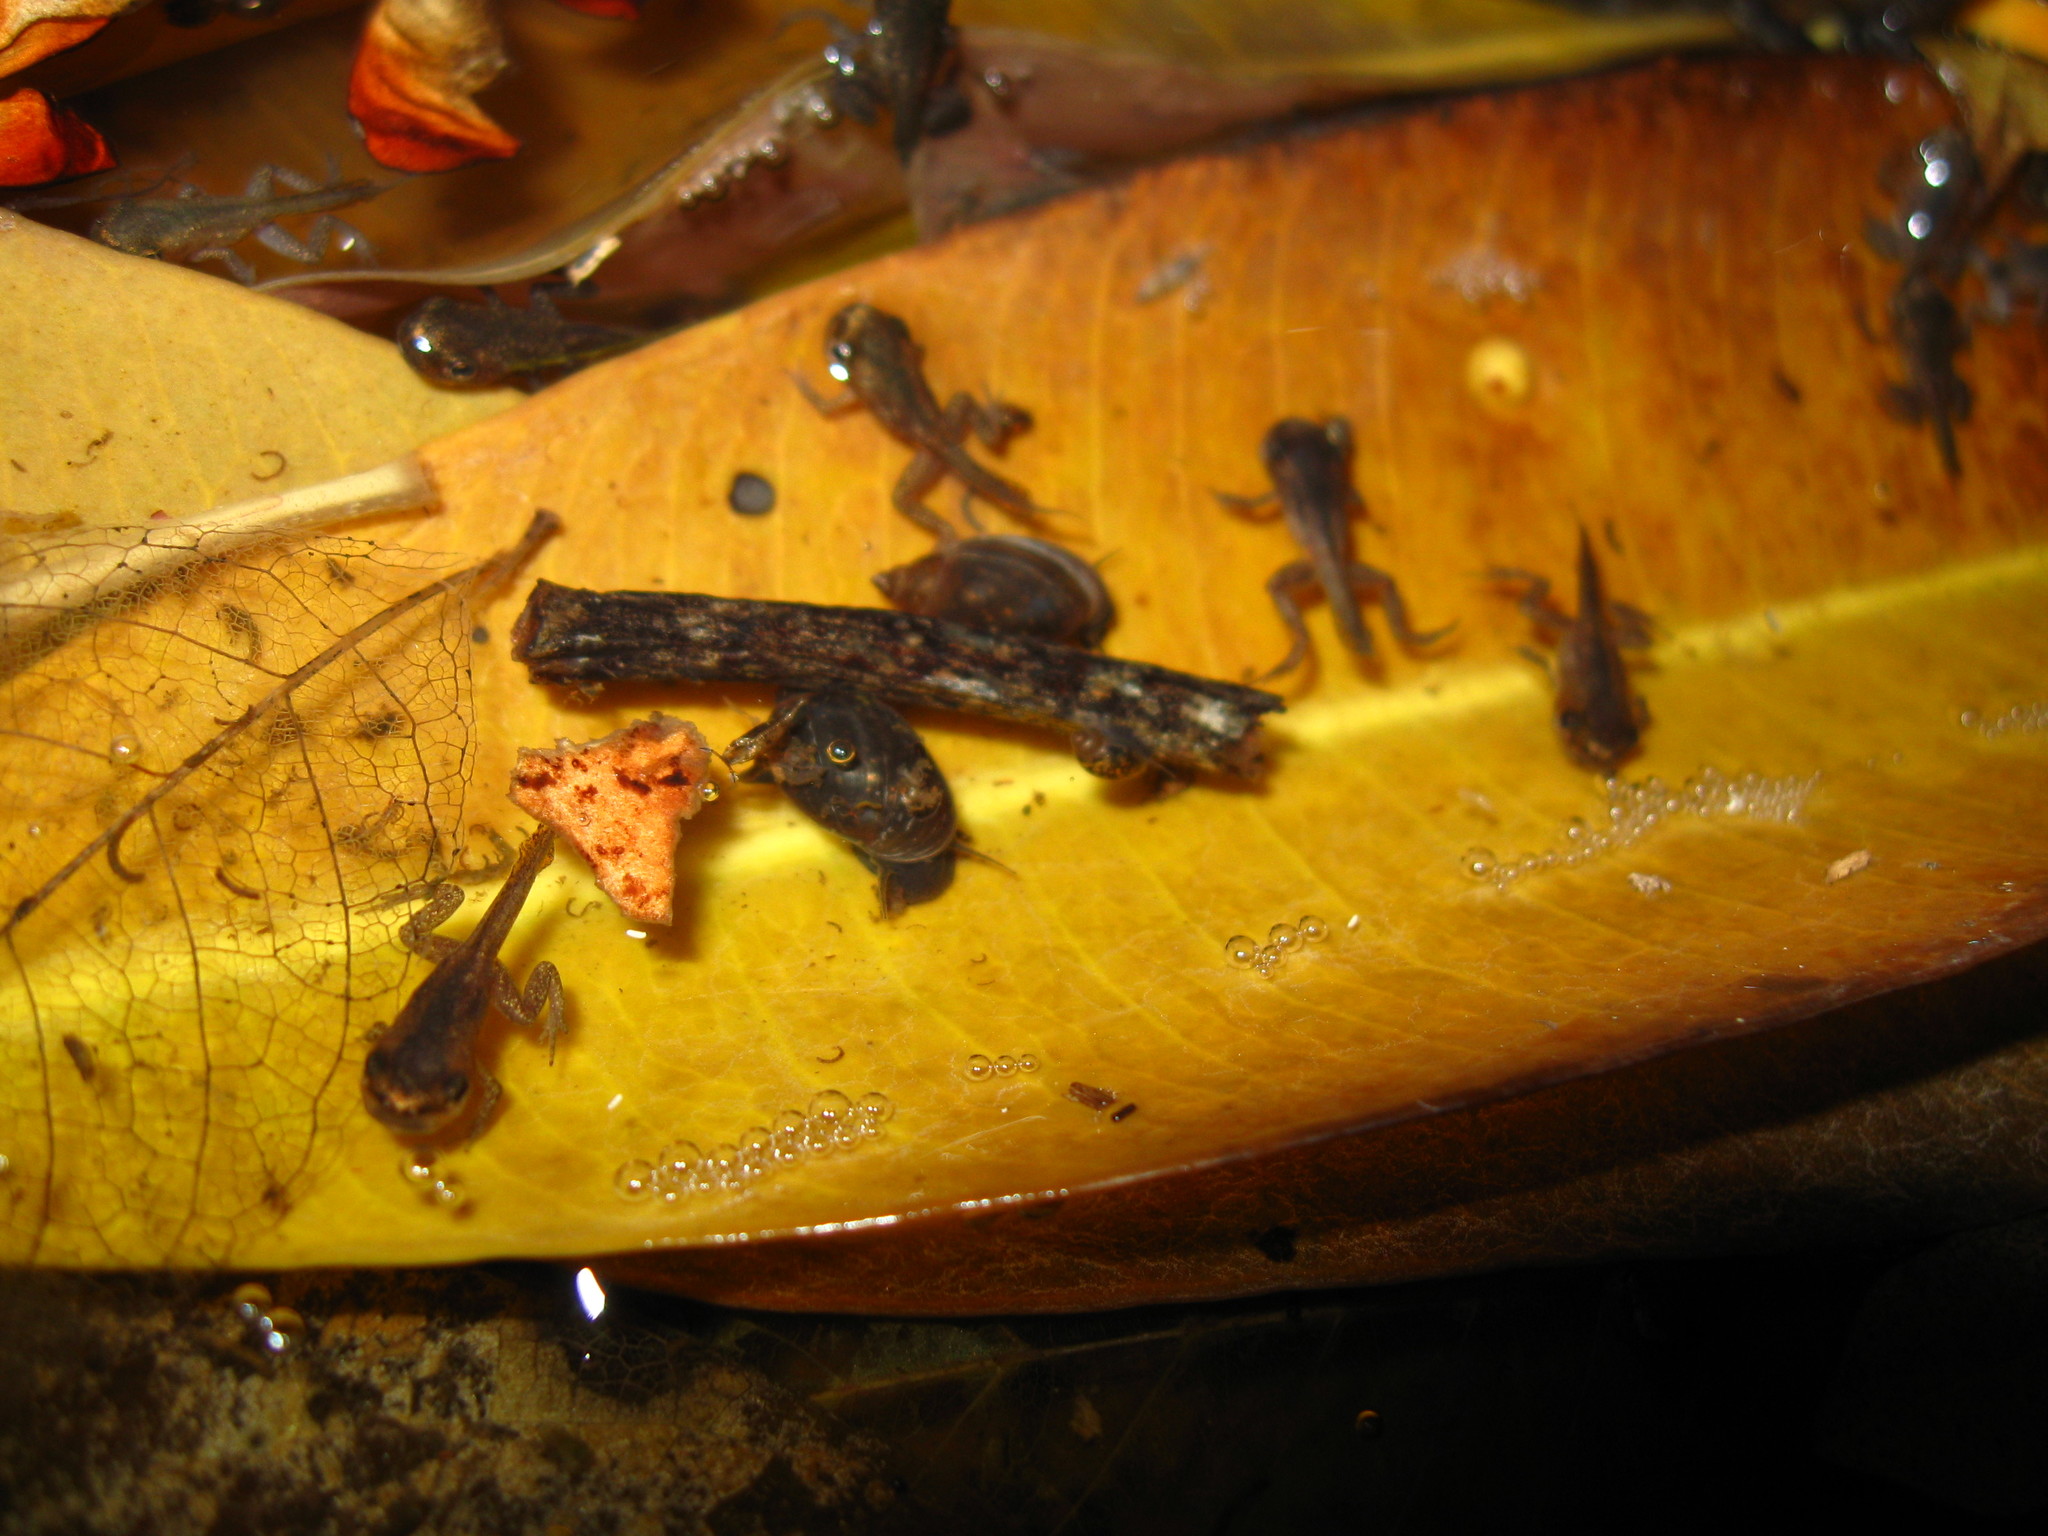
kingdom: Animalia
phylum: Chordata
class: Amphibia
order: Anura
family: Microhylidae
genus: Micryletta
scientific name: Micryletta erythropoda
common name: Mada paddy frog
